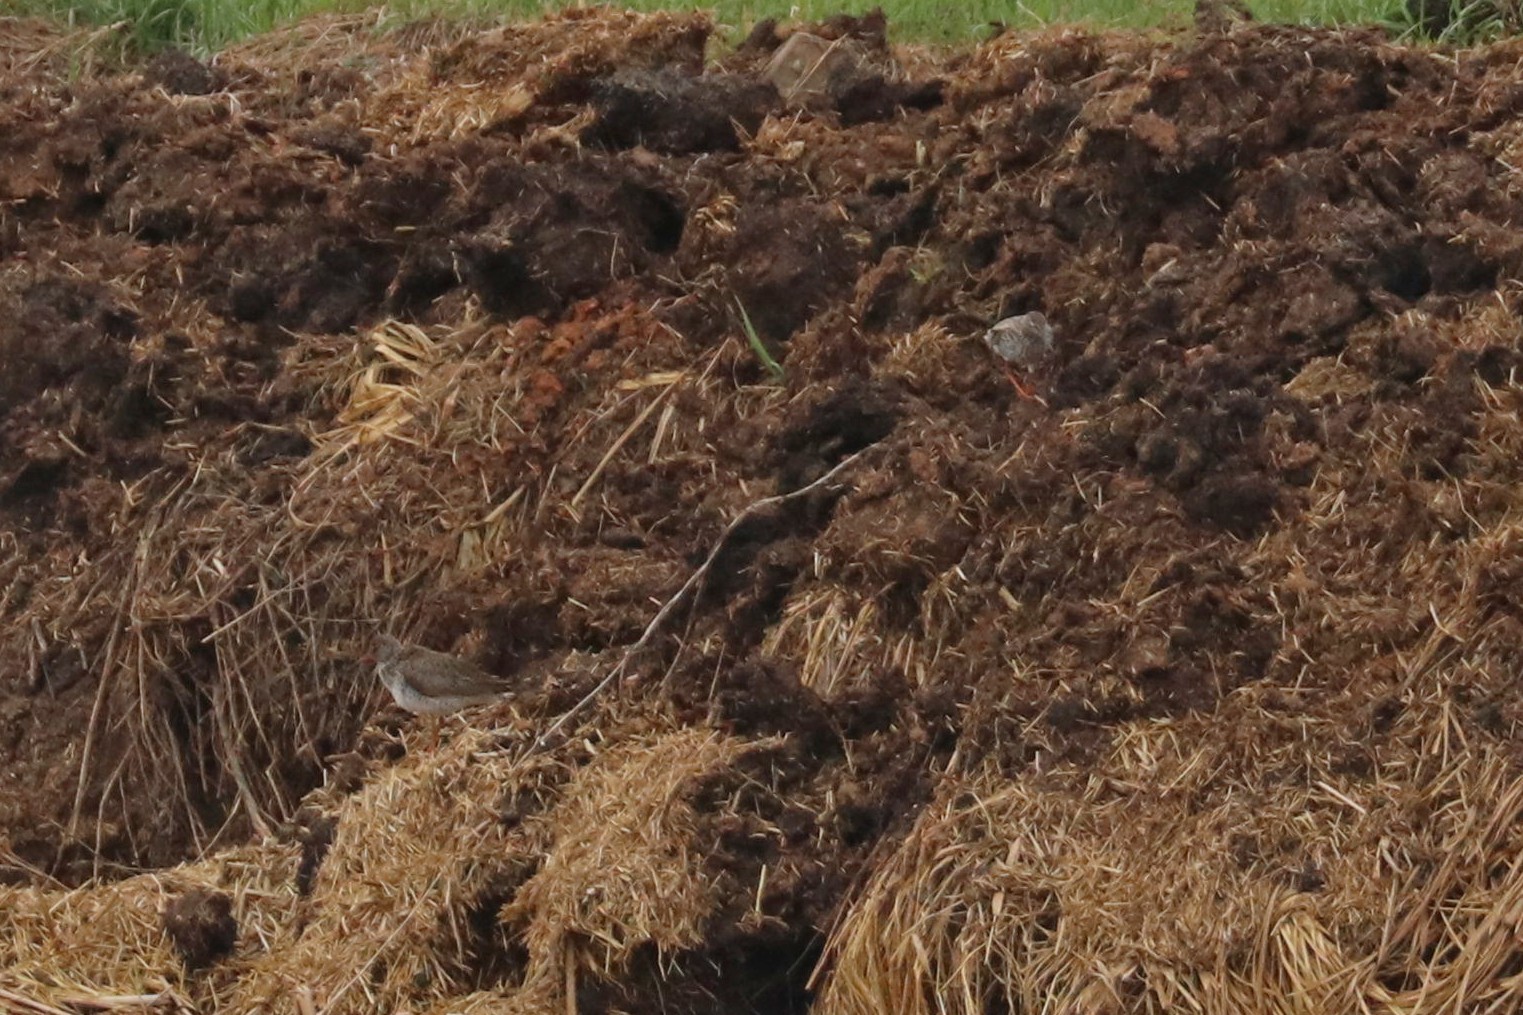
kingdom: Animalia
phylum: Chordata
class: Aves
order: Charadriiformes
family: Scolopacidae
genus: Tringa
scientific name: Tringa totanus
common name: Common redshank
